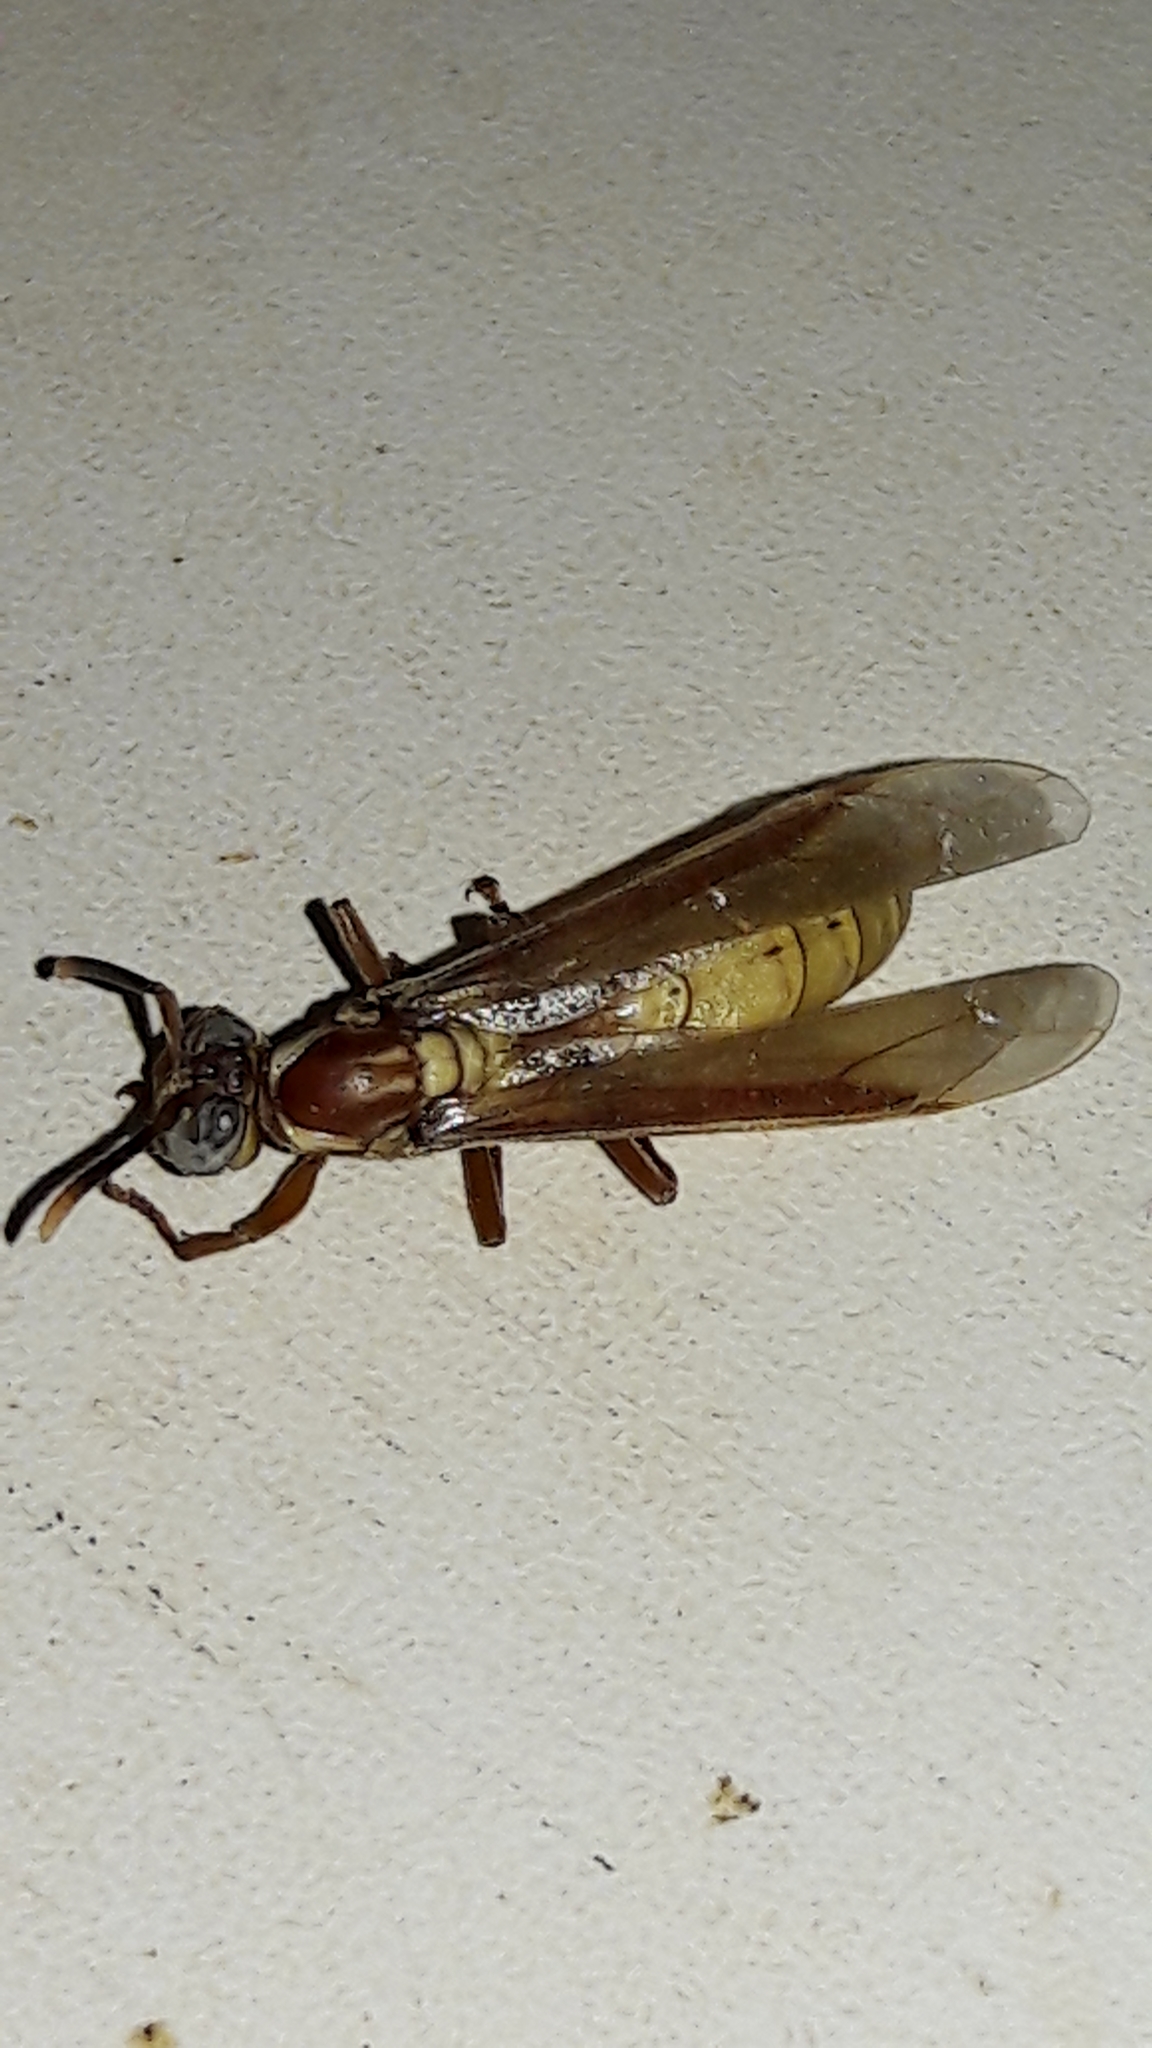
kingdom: Animalia
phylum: Arthropoda
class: Insecta
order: Hymenoptera
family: Vespidae
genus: Apoica
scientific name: Apoica flavissima
